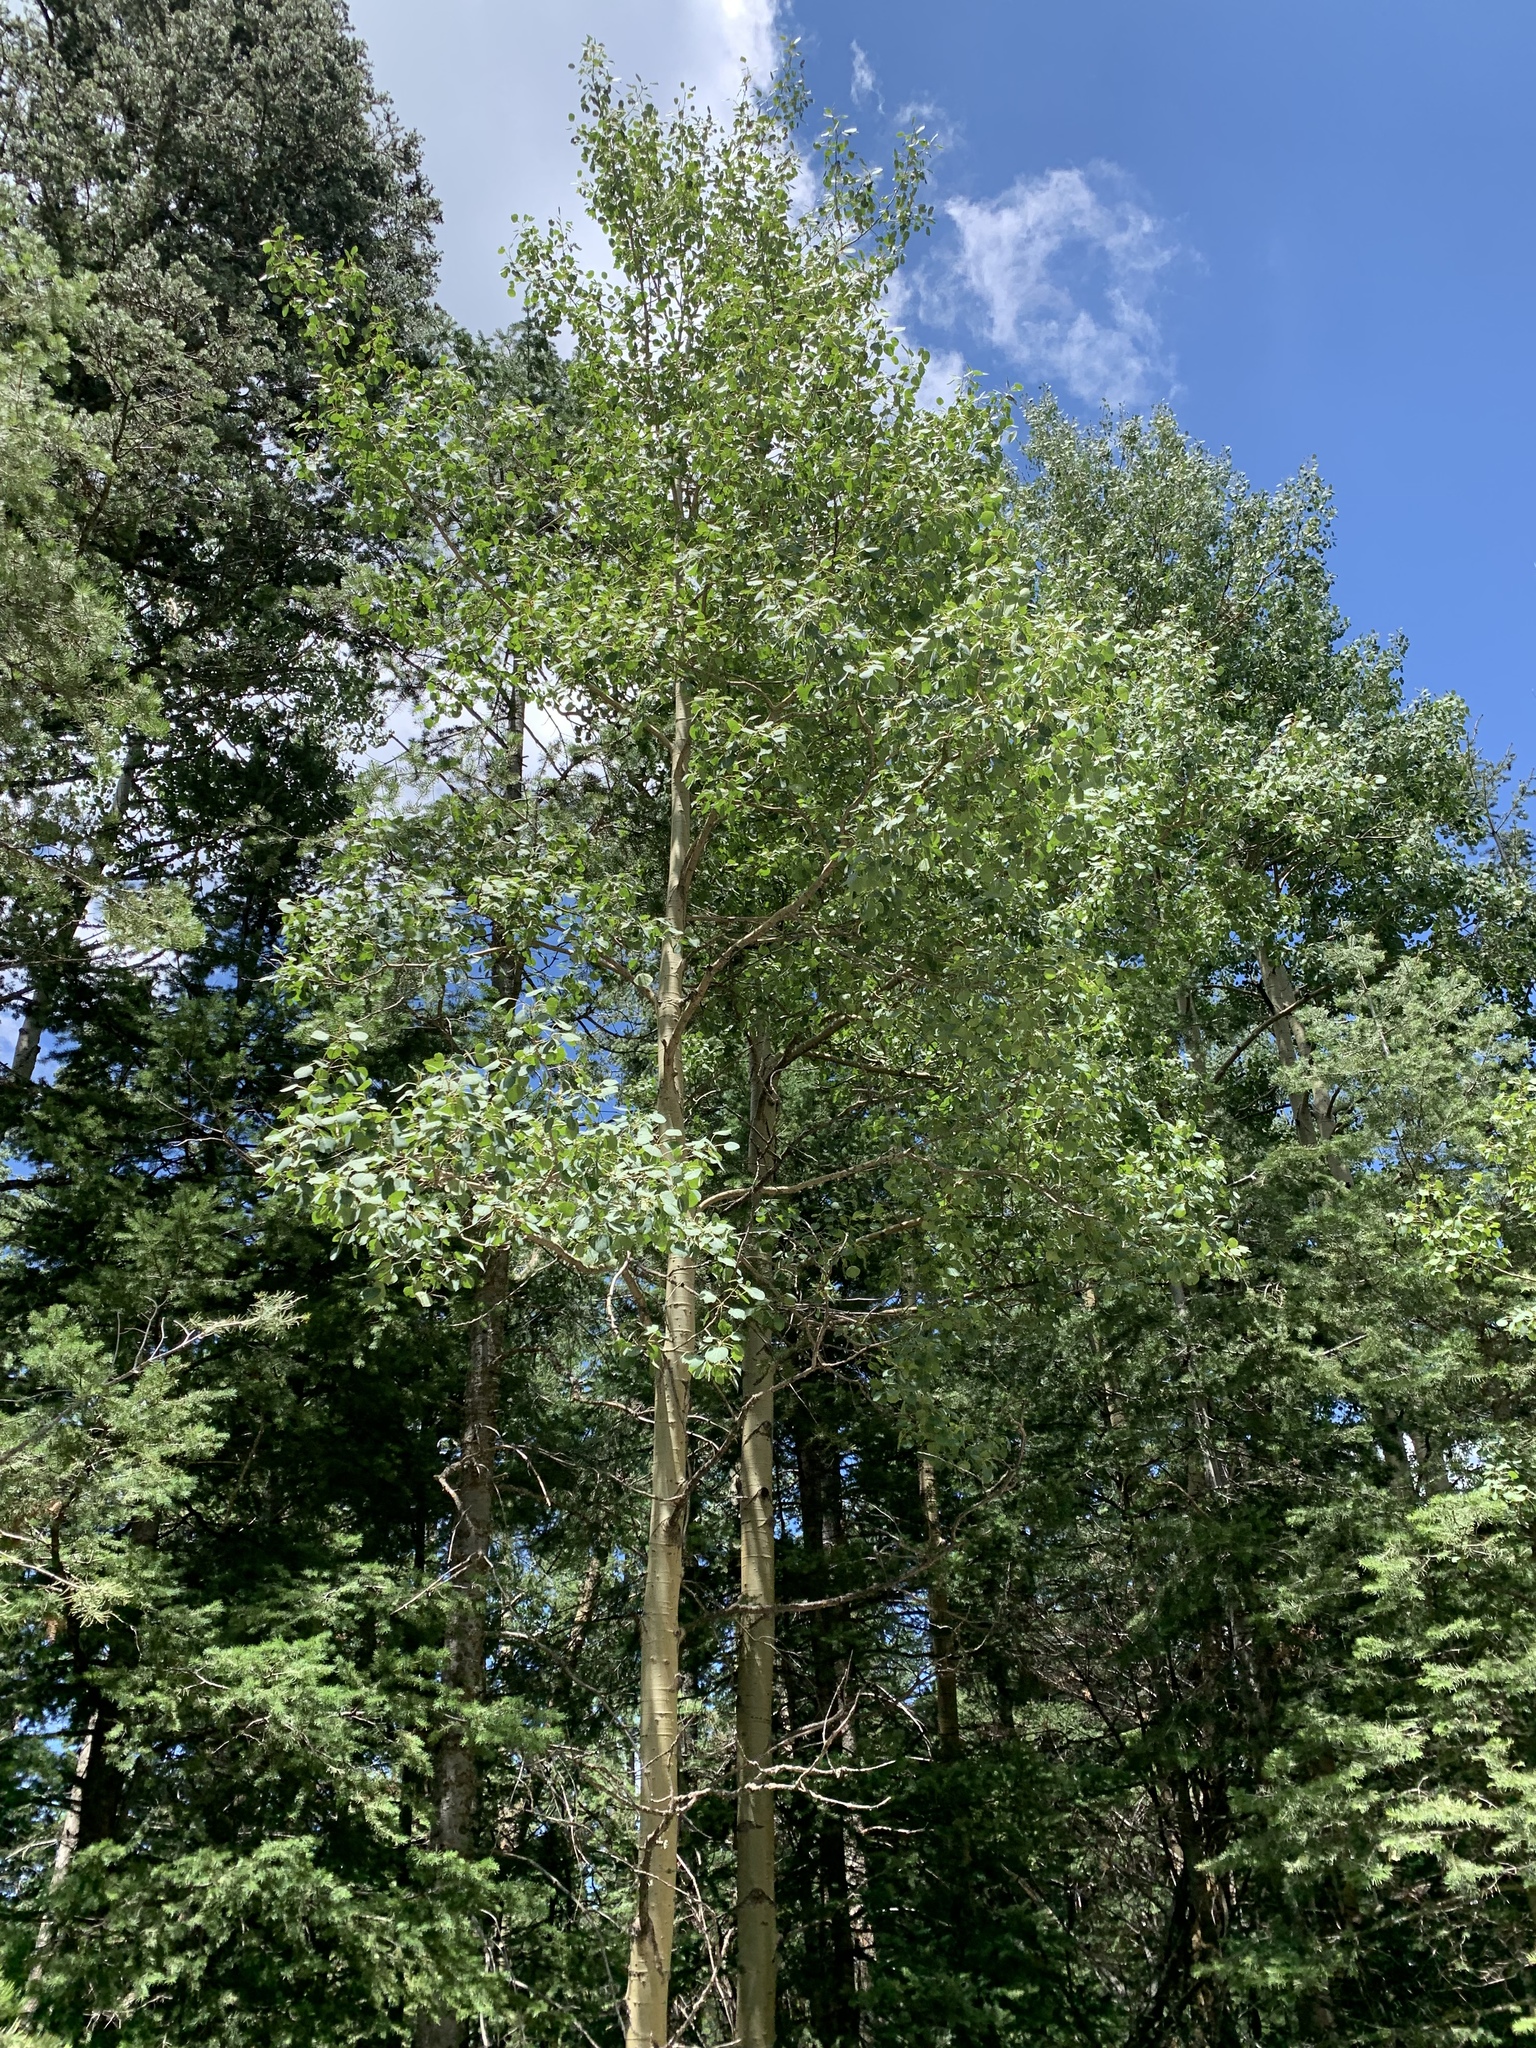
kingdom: Plantae
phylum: Tracheophyta
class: Magnoliopsida
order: Malpighiales
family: Salicaceae
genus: Populus
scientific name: Populus tremuloides
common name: Quaking aspen
